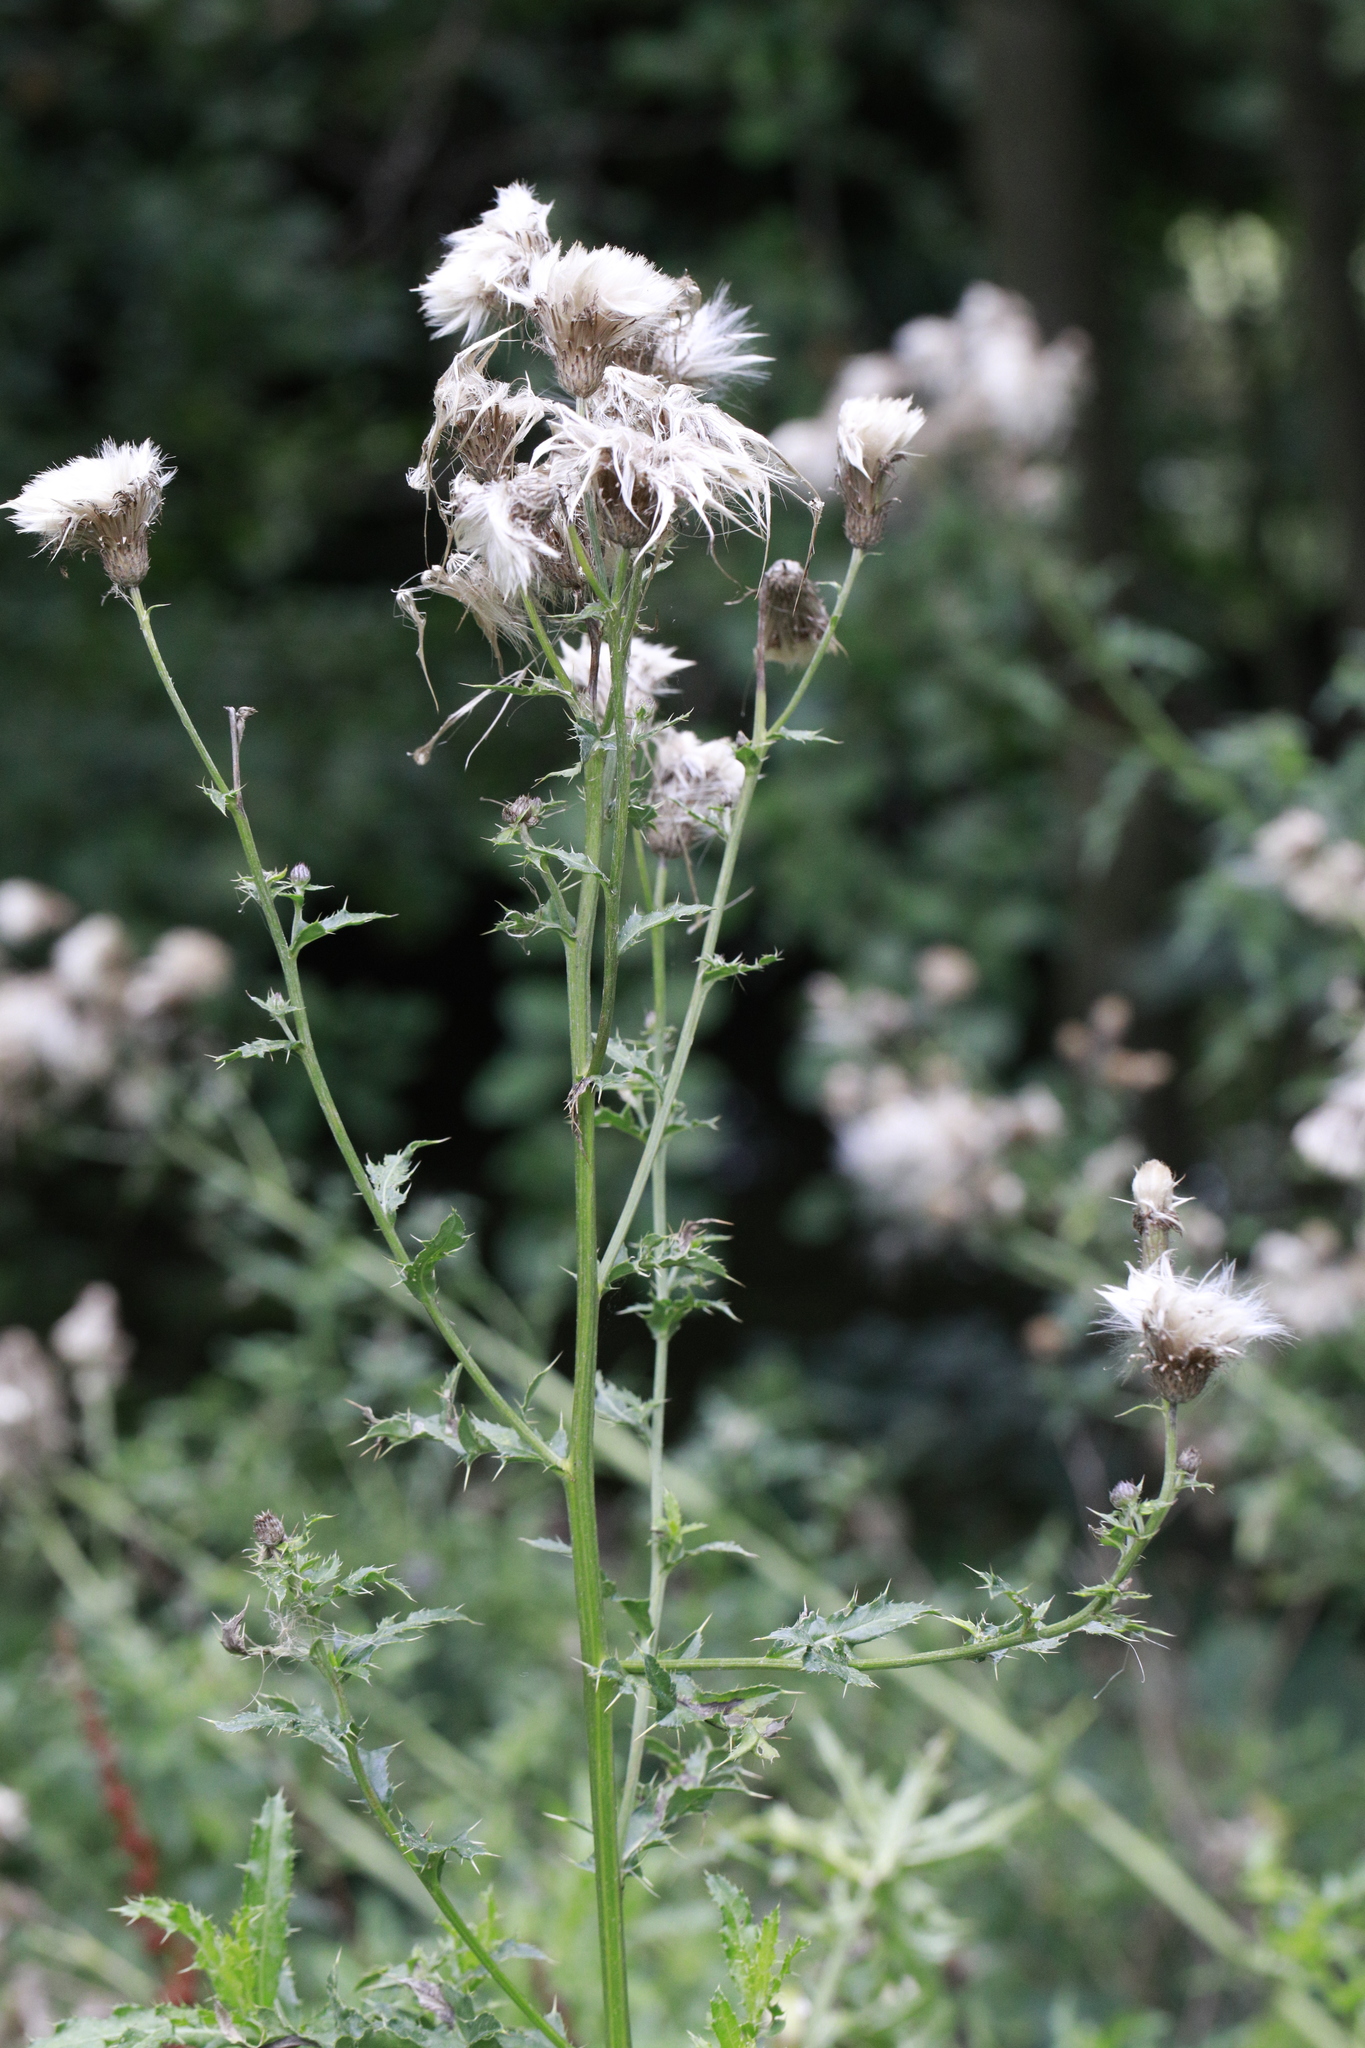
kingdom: Plantae
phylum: Tracheophyta
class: Magnoliopsida
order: Asterales
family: Asteraceae
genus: Cirsium
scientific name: Cirsium arvense
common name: Creeping thistle
